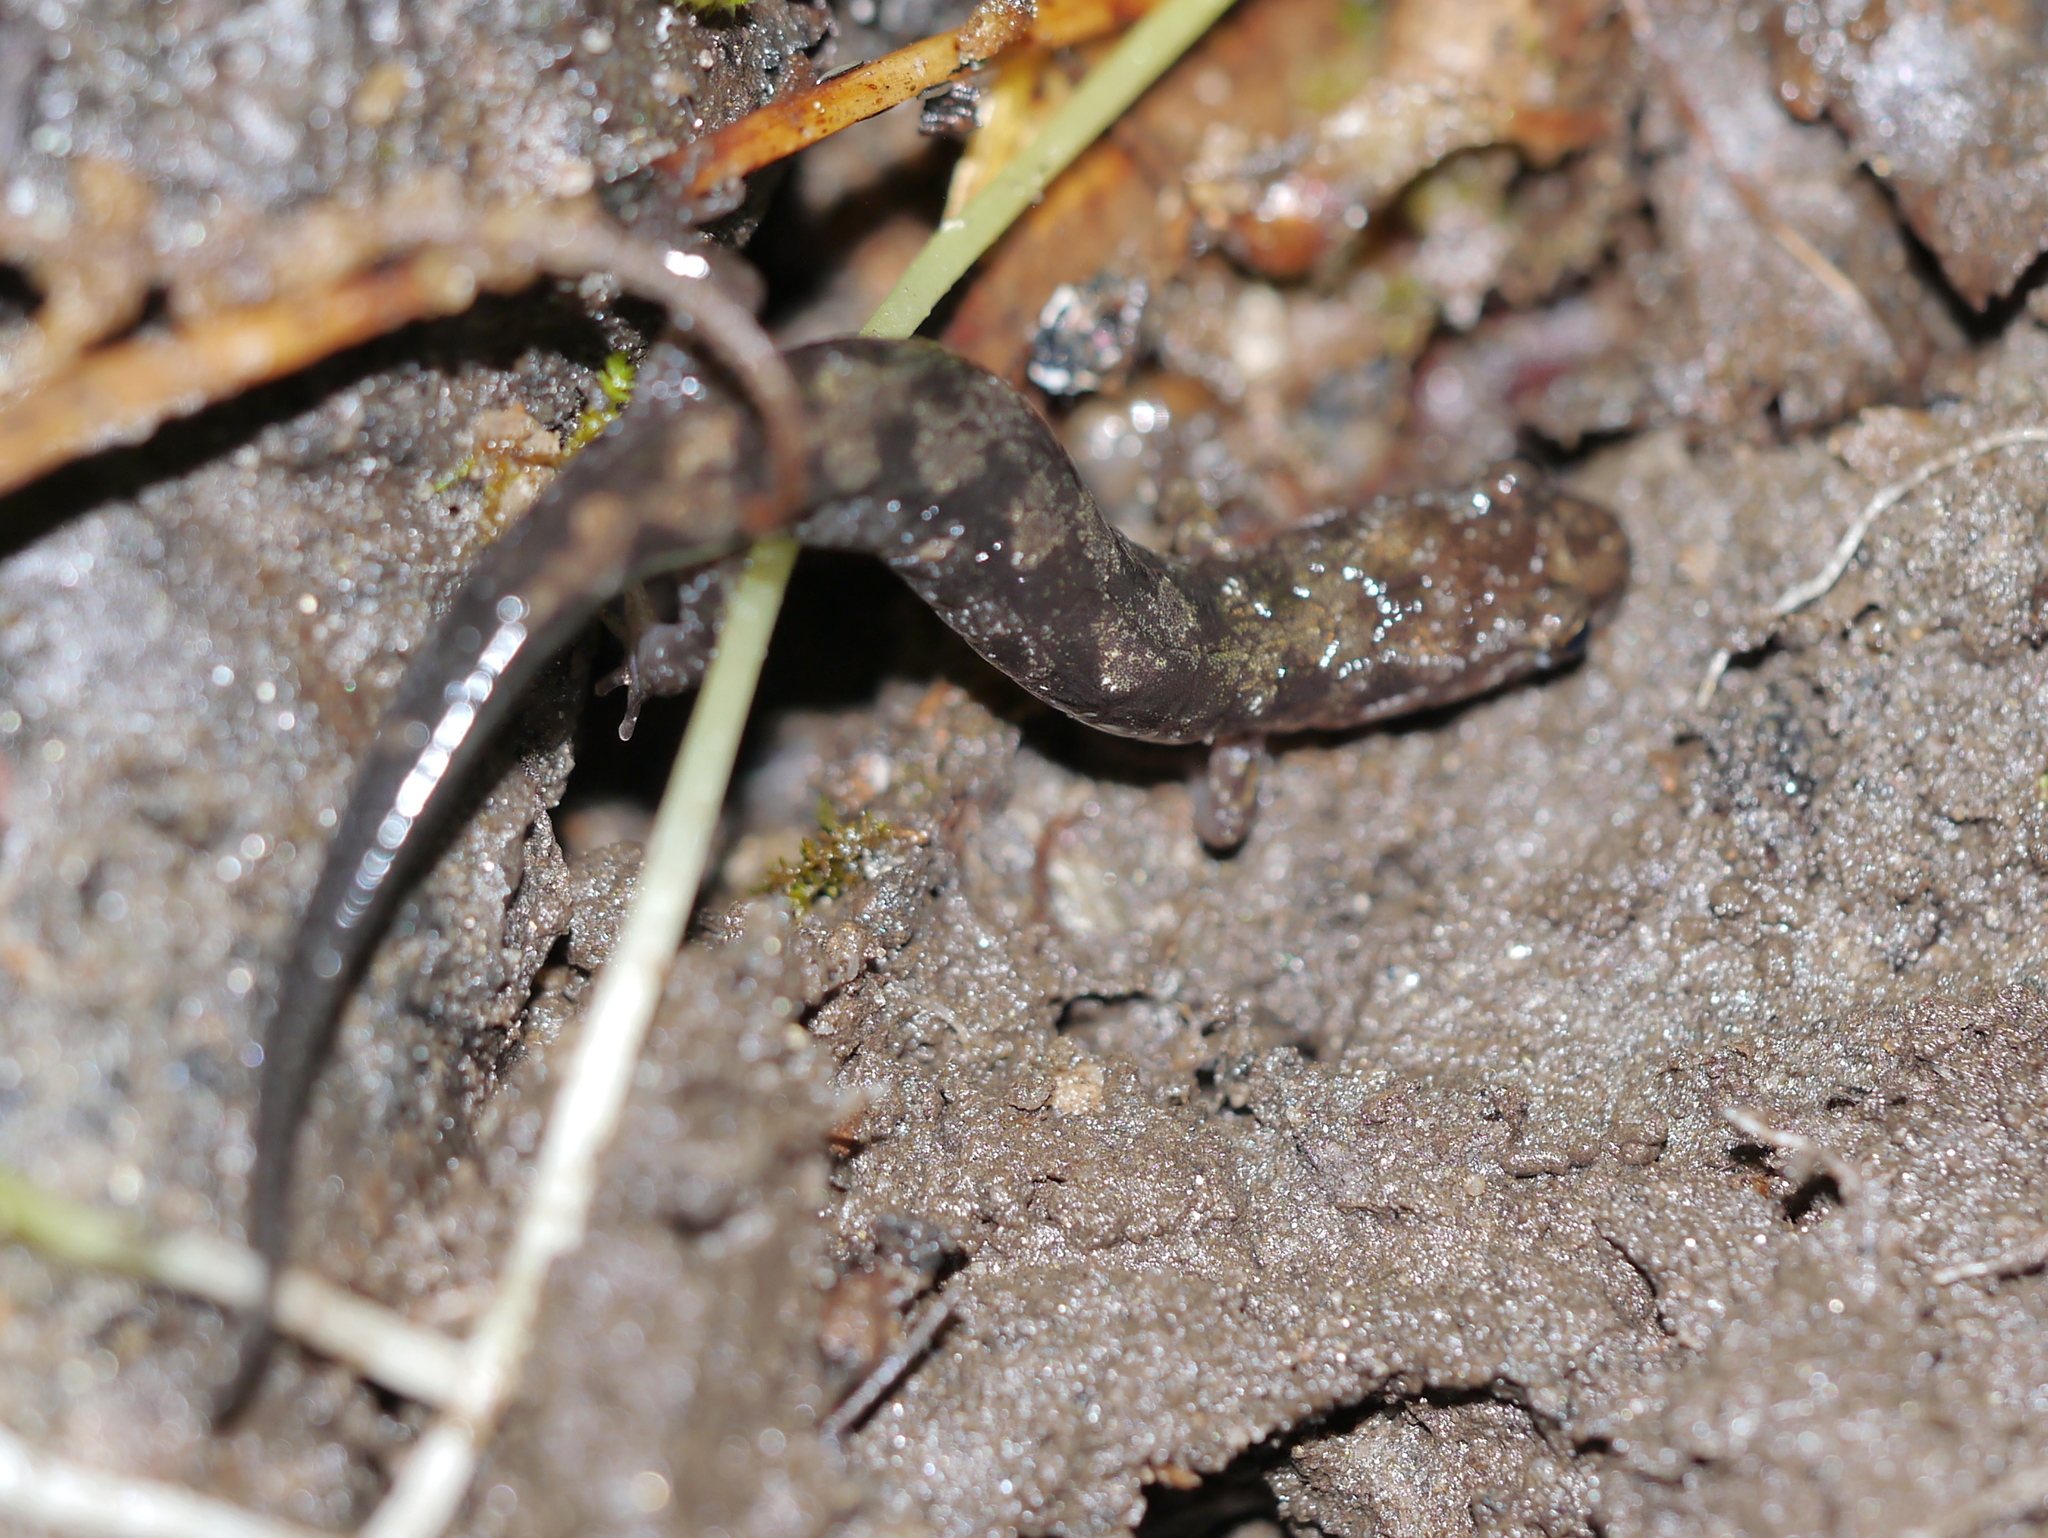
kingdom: Animalia
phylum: Chordata
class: Amphibia
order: Caudata
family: Plethodontidae
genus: Desmognathus
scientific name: Desmognathus monticola
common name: Seal salamander
